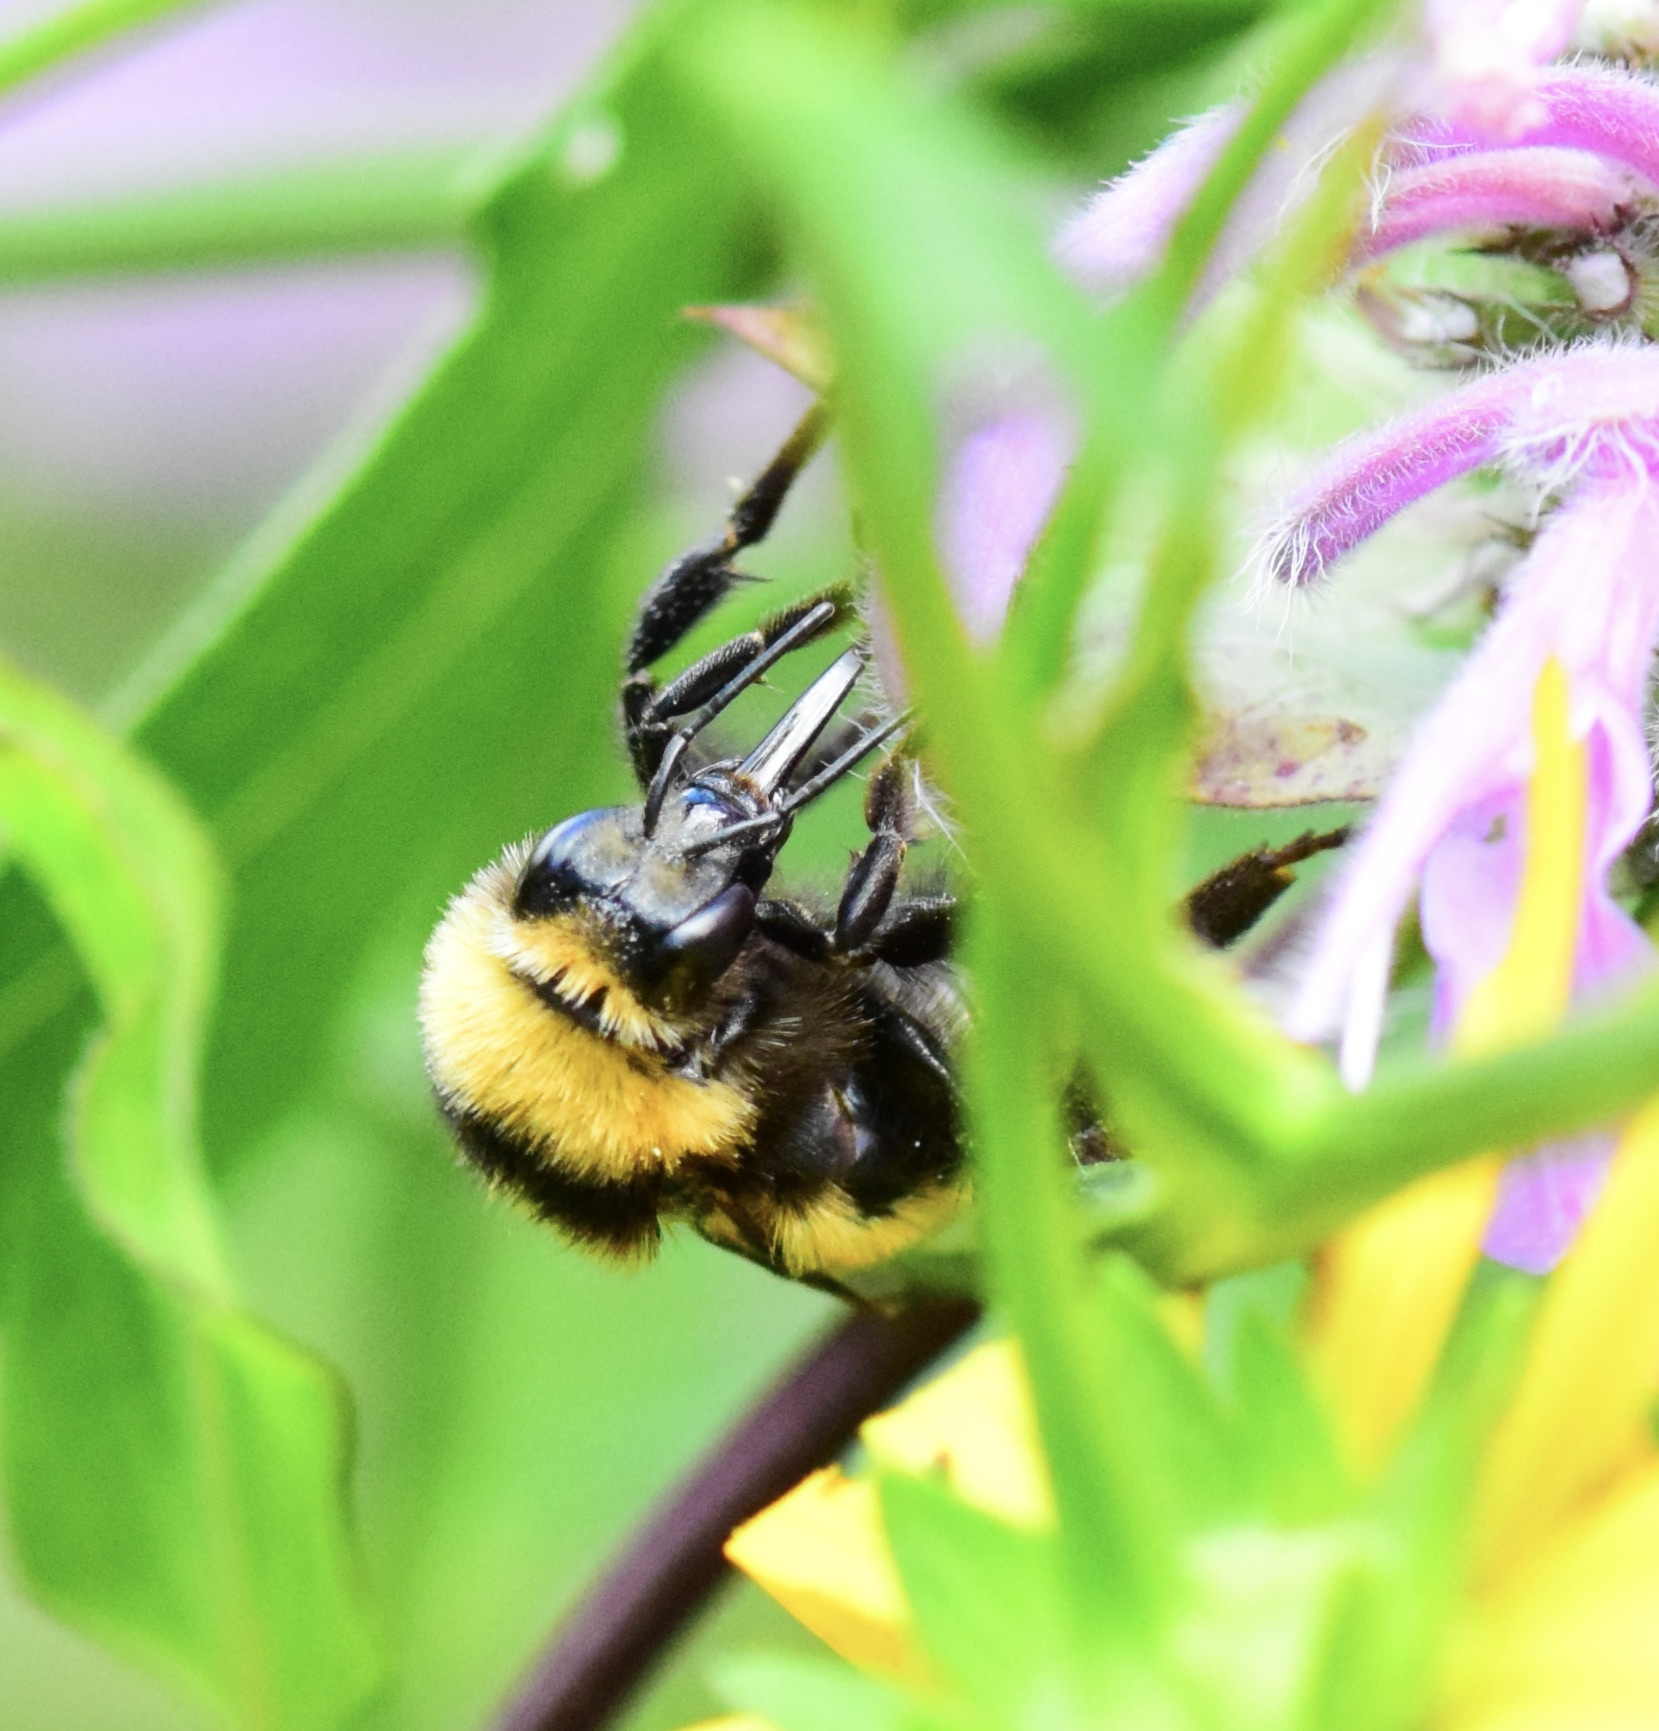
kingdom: Animalia
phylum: Arthropoda
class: Insecta
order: Hymenoptera
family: Apidae
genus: Bombus
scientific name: Bombus borealis
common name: Northern amber bumble bee
